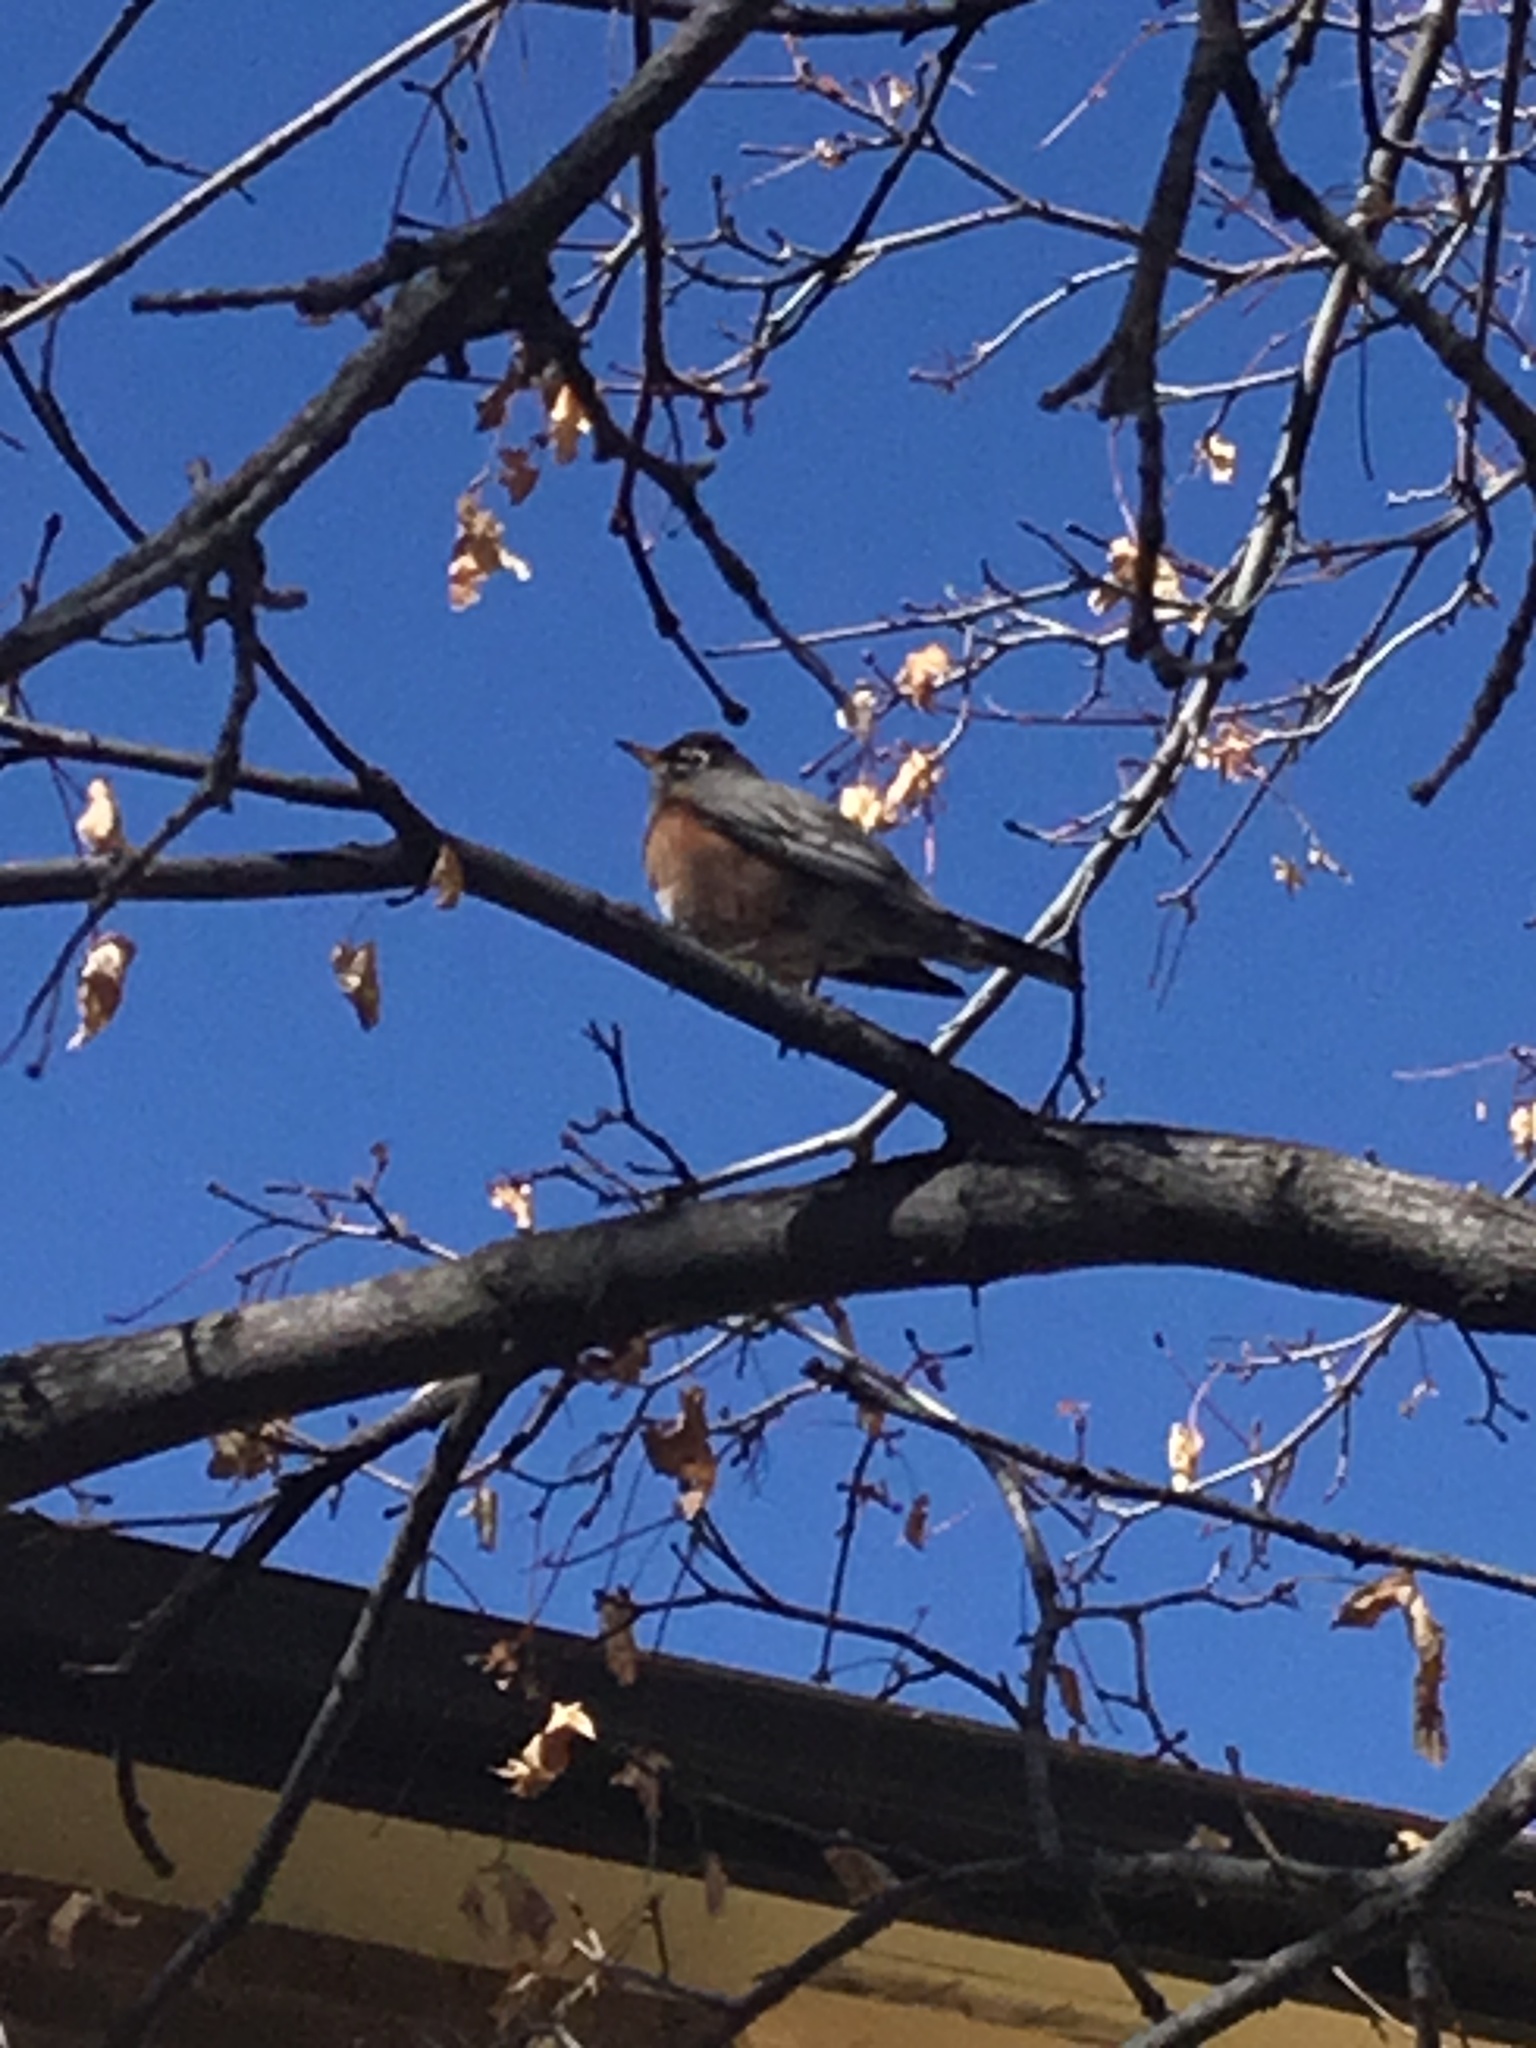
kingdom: Animalia
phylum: Chordata
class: Aves
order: Passeriformes
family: Turdidae
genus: Turdus
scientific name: Turdus migratorius
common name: American robin
